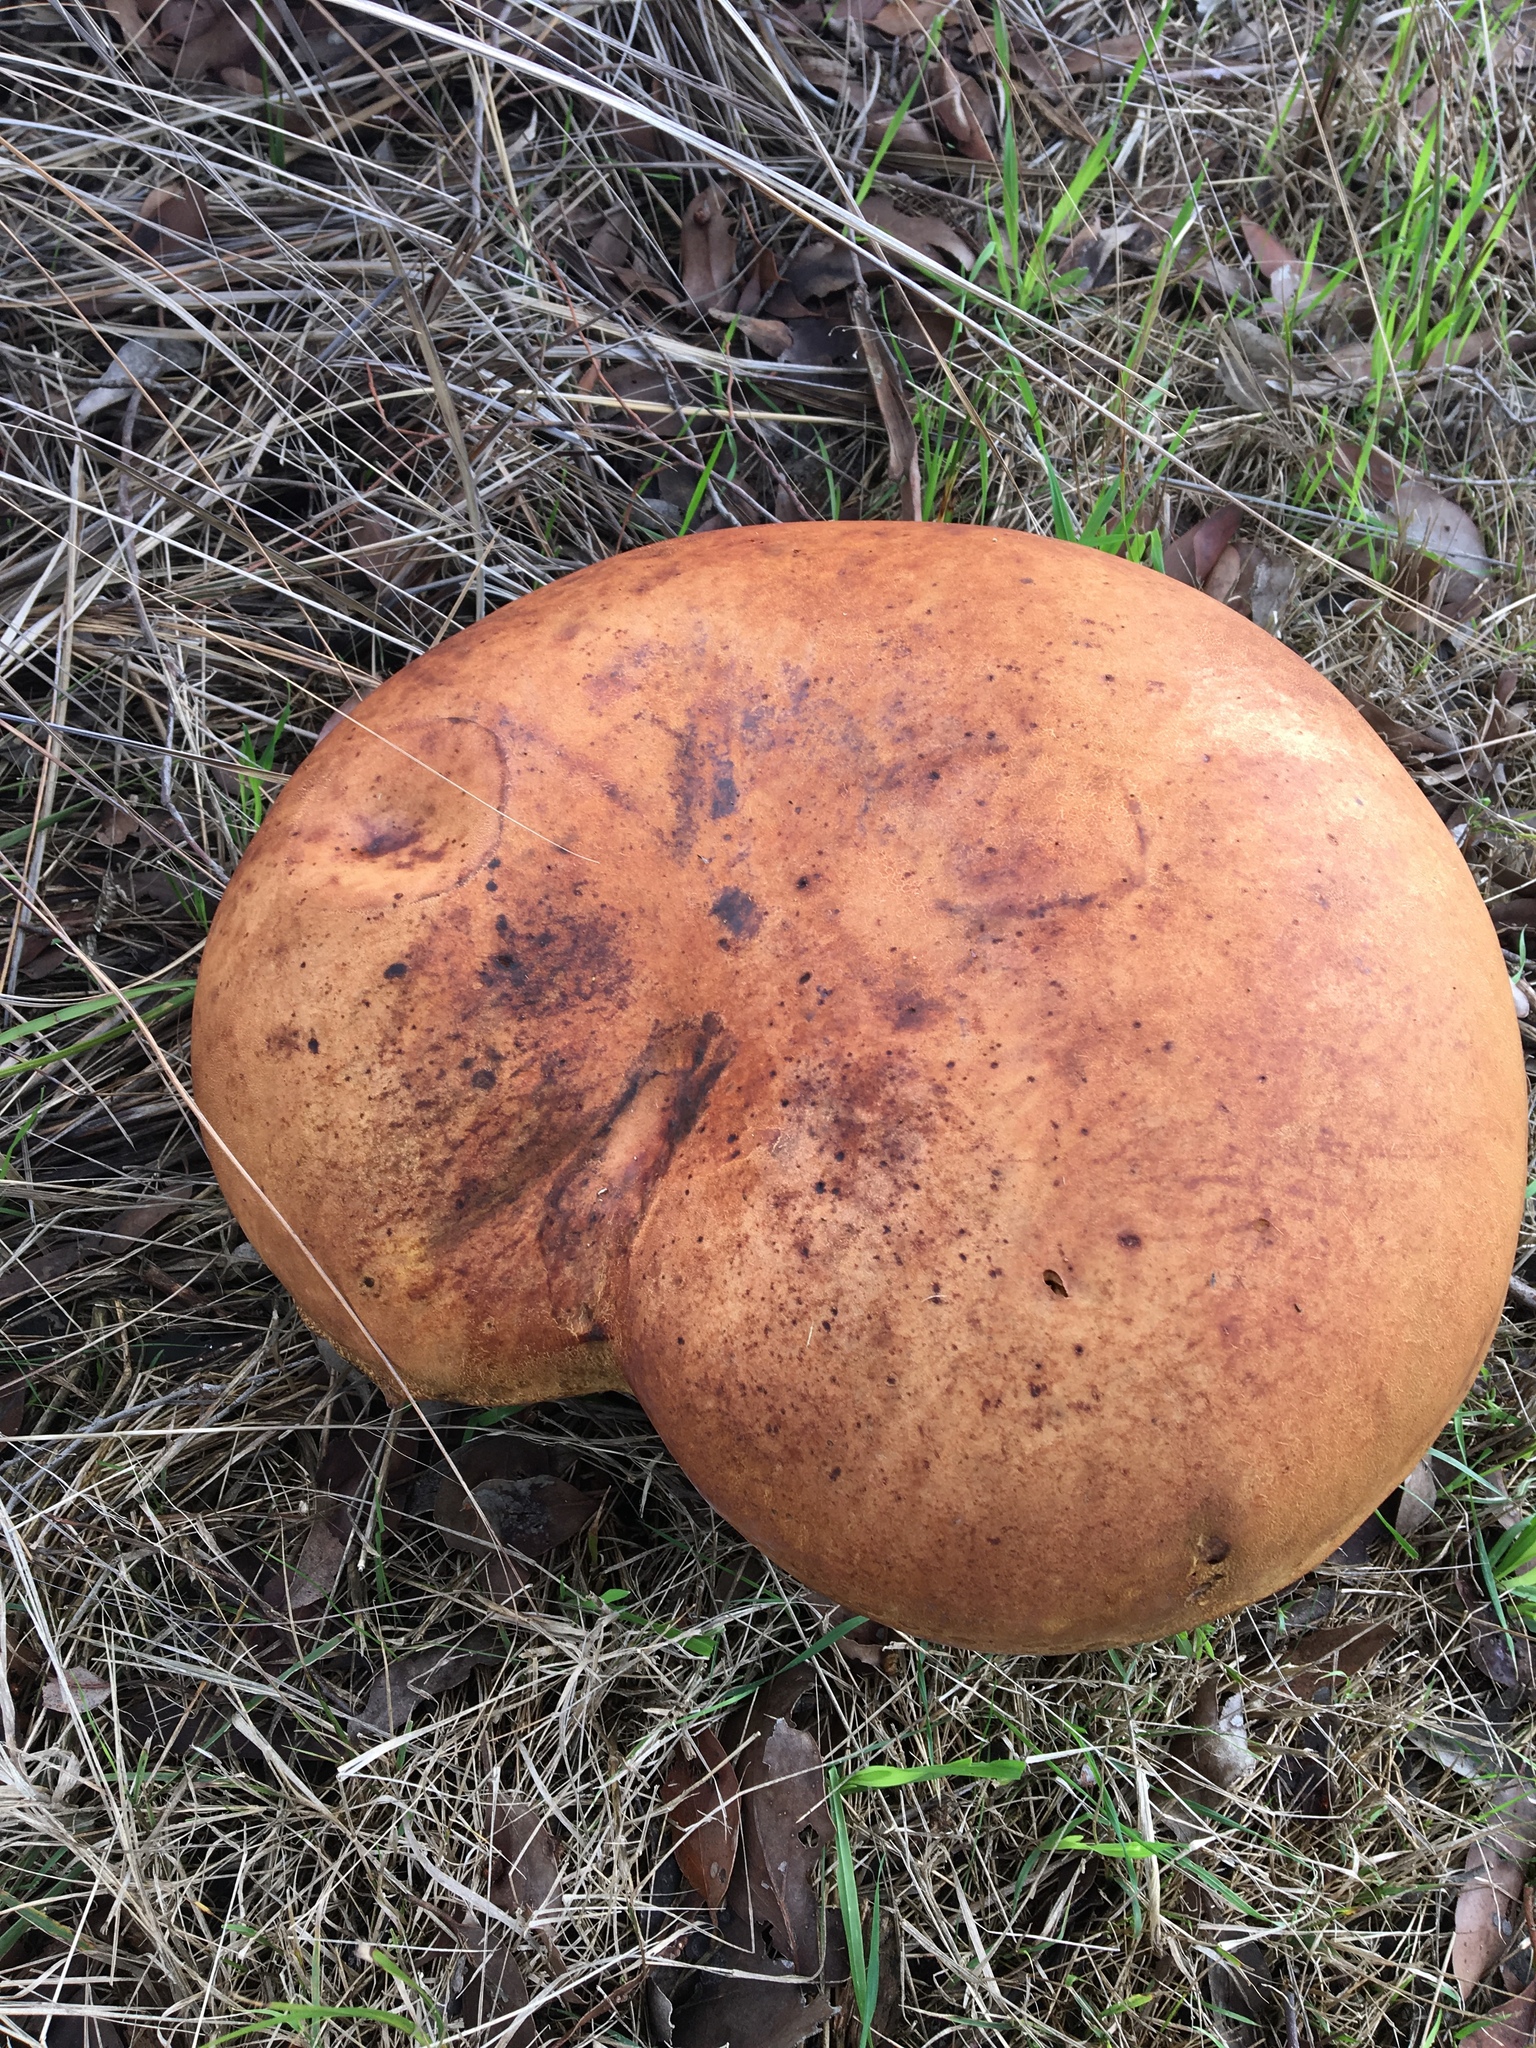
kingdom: Fungi
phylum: Basidiomycota
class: Agaricomycetes
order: Boletales
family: Boletinellaceae
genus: Phlebopus
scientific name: Phlebopus marginatus
